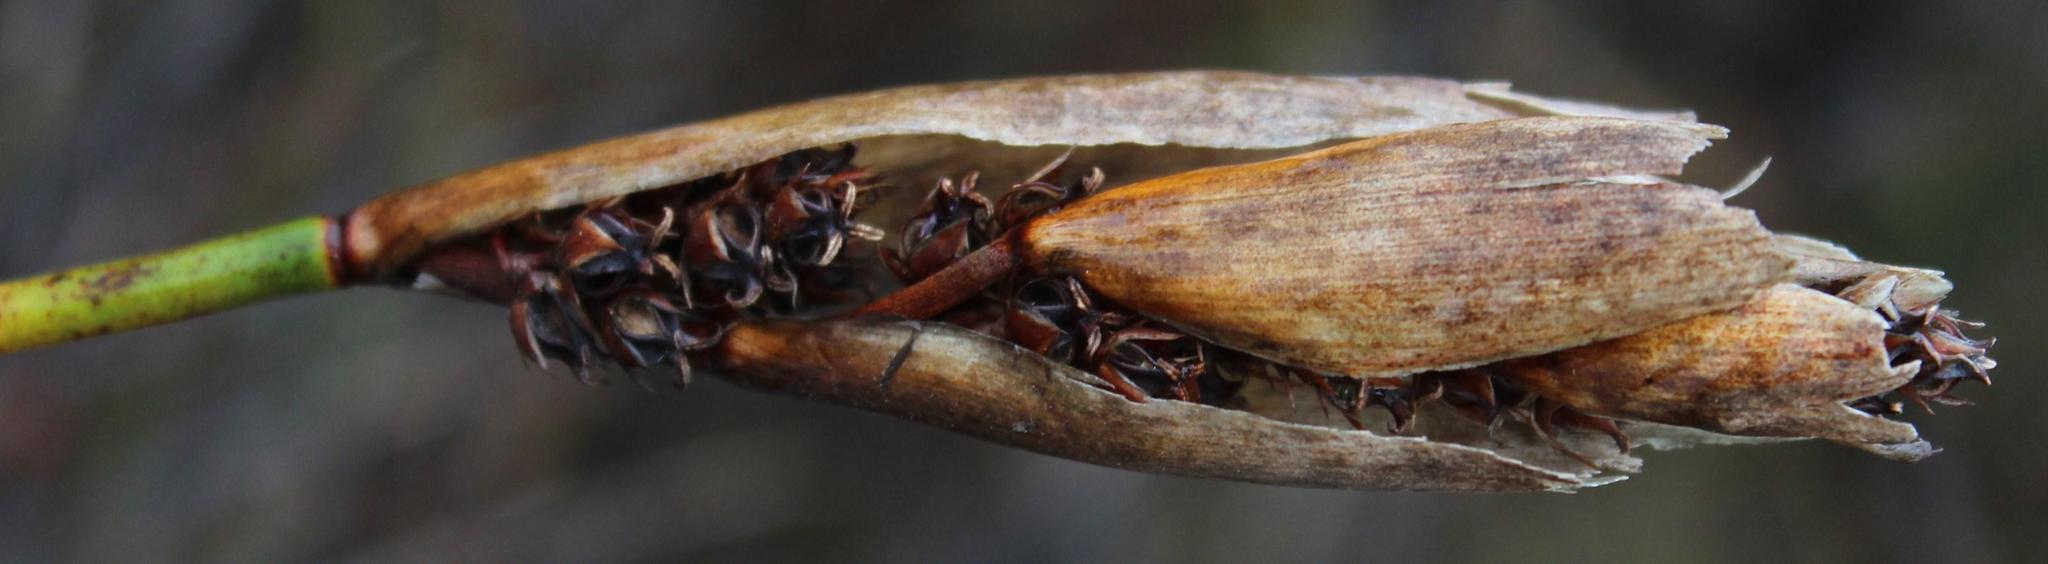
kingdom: Plantae
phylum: Tracheophyta
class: Liliopsida
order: Poales
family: Restionaceae
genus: Elegia
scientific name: Elegia mucronata
